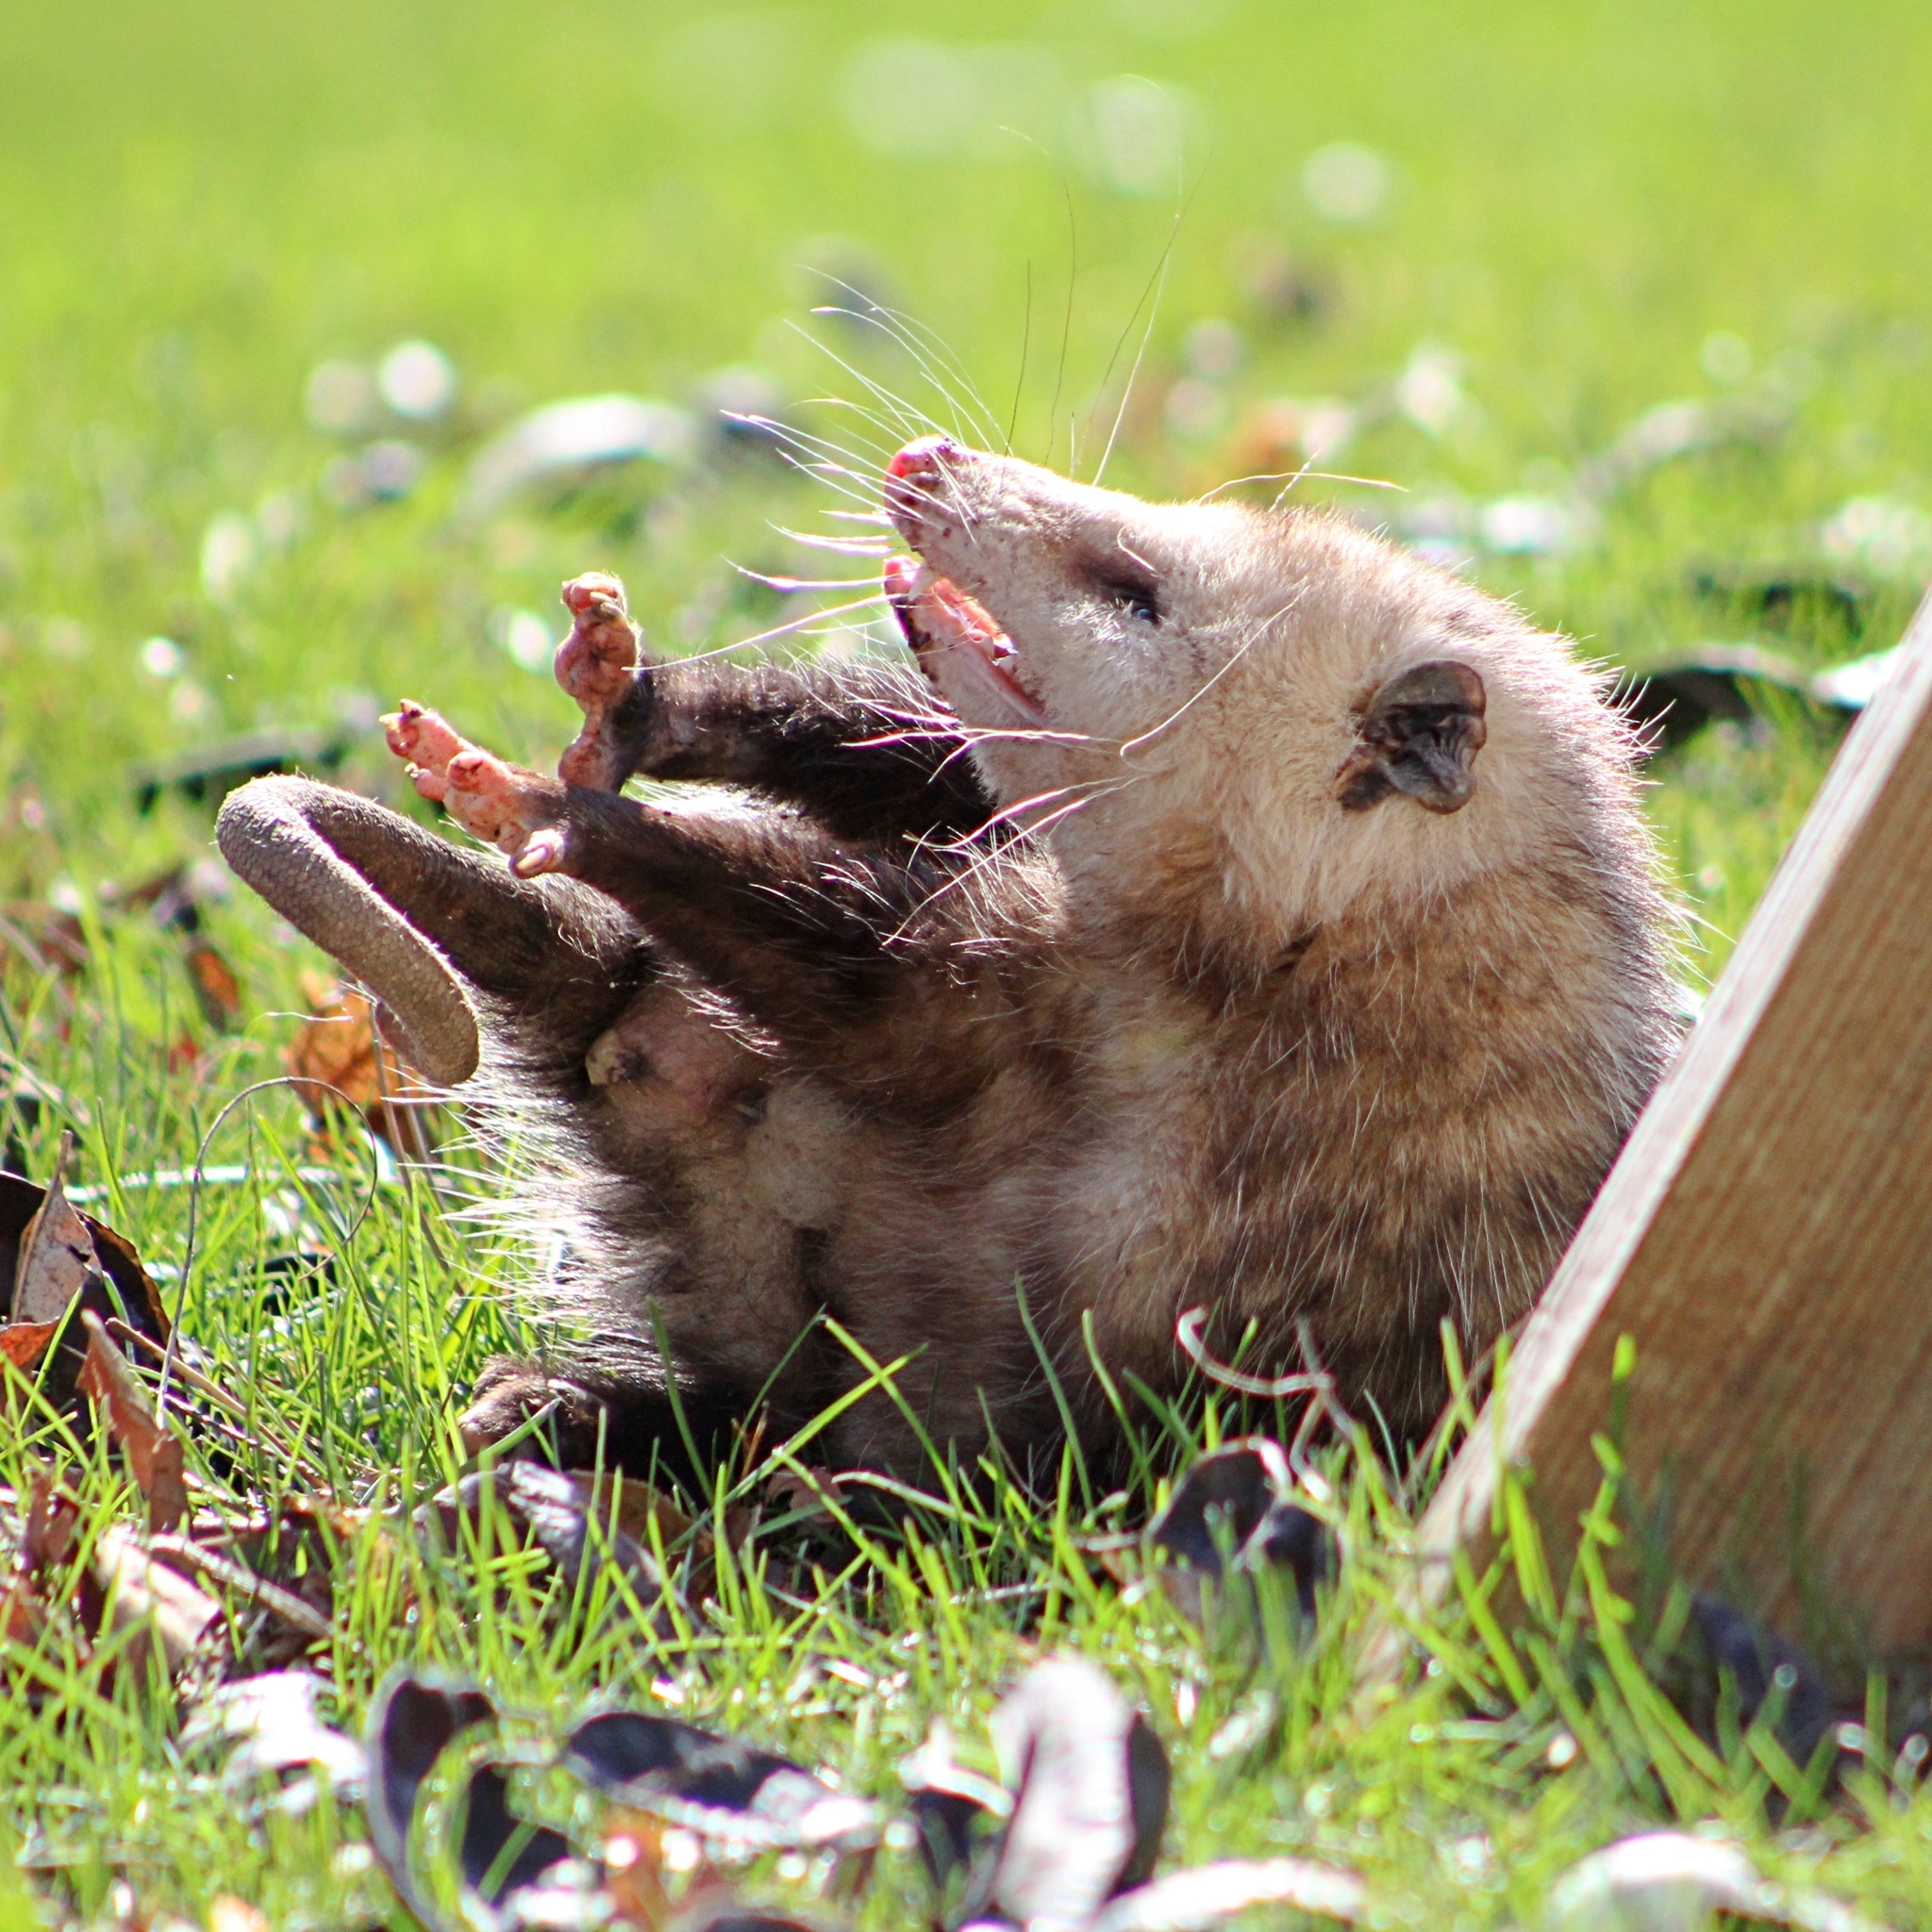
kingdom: Animalia
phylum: Chordata
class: Mammalia
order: Didelphimorphia
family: Didelphidae
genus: Didelphis
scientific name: Didelphis virginiana
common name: Virginia opossum
